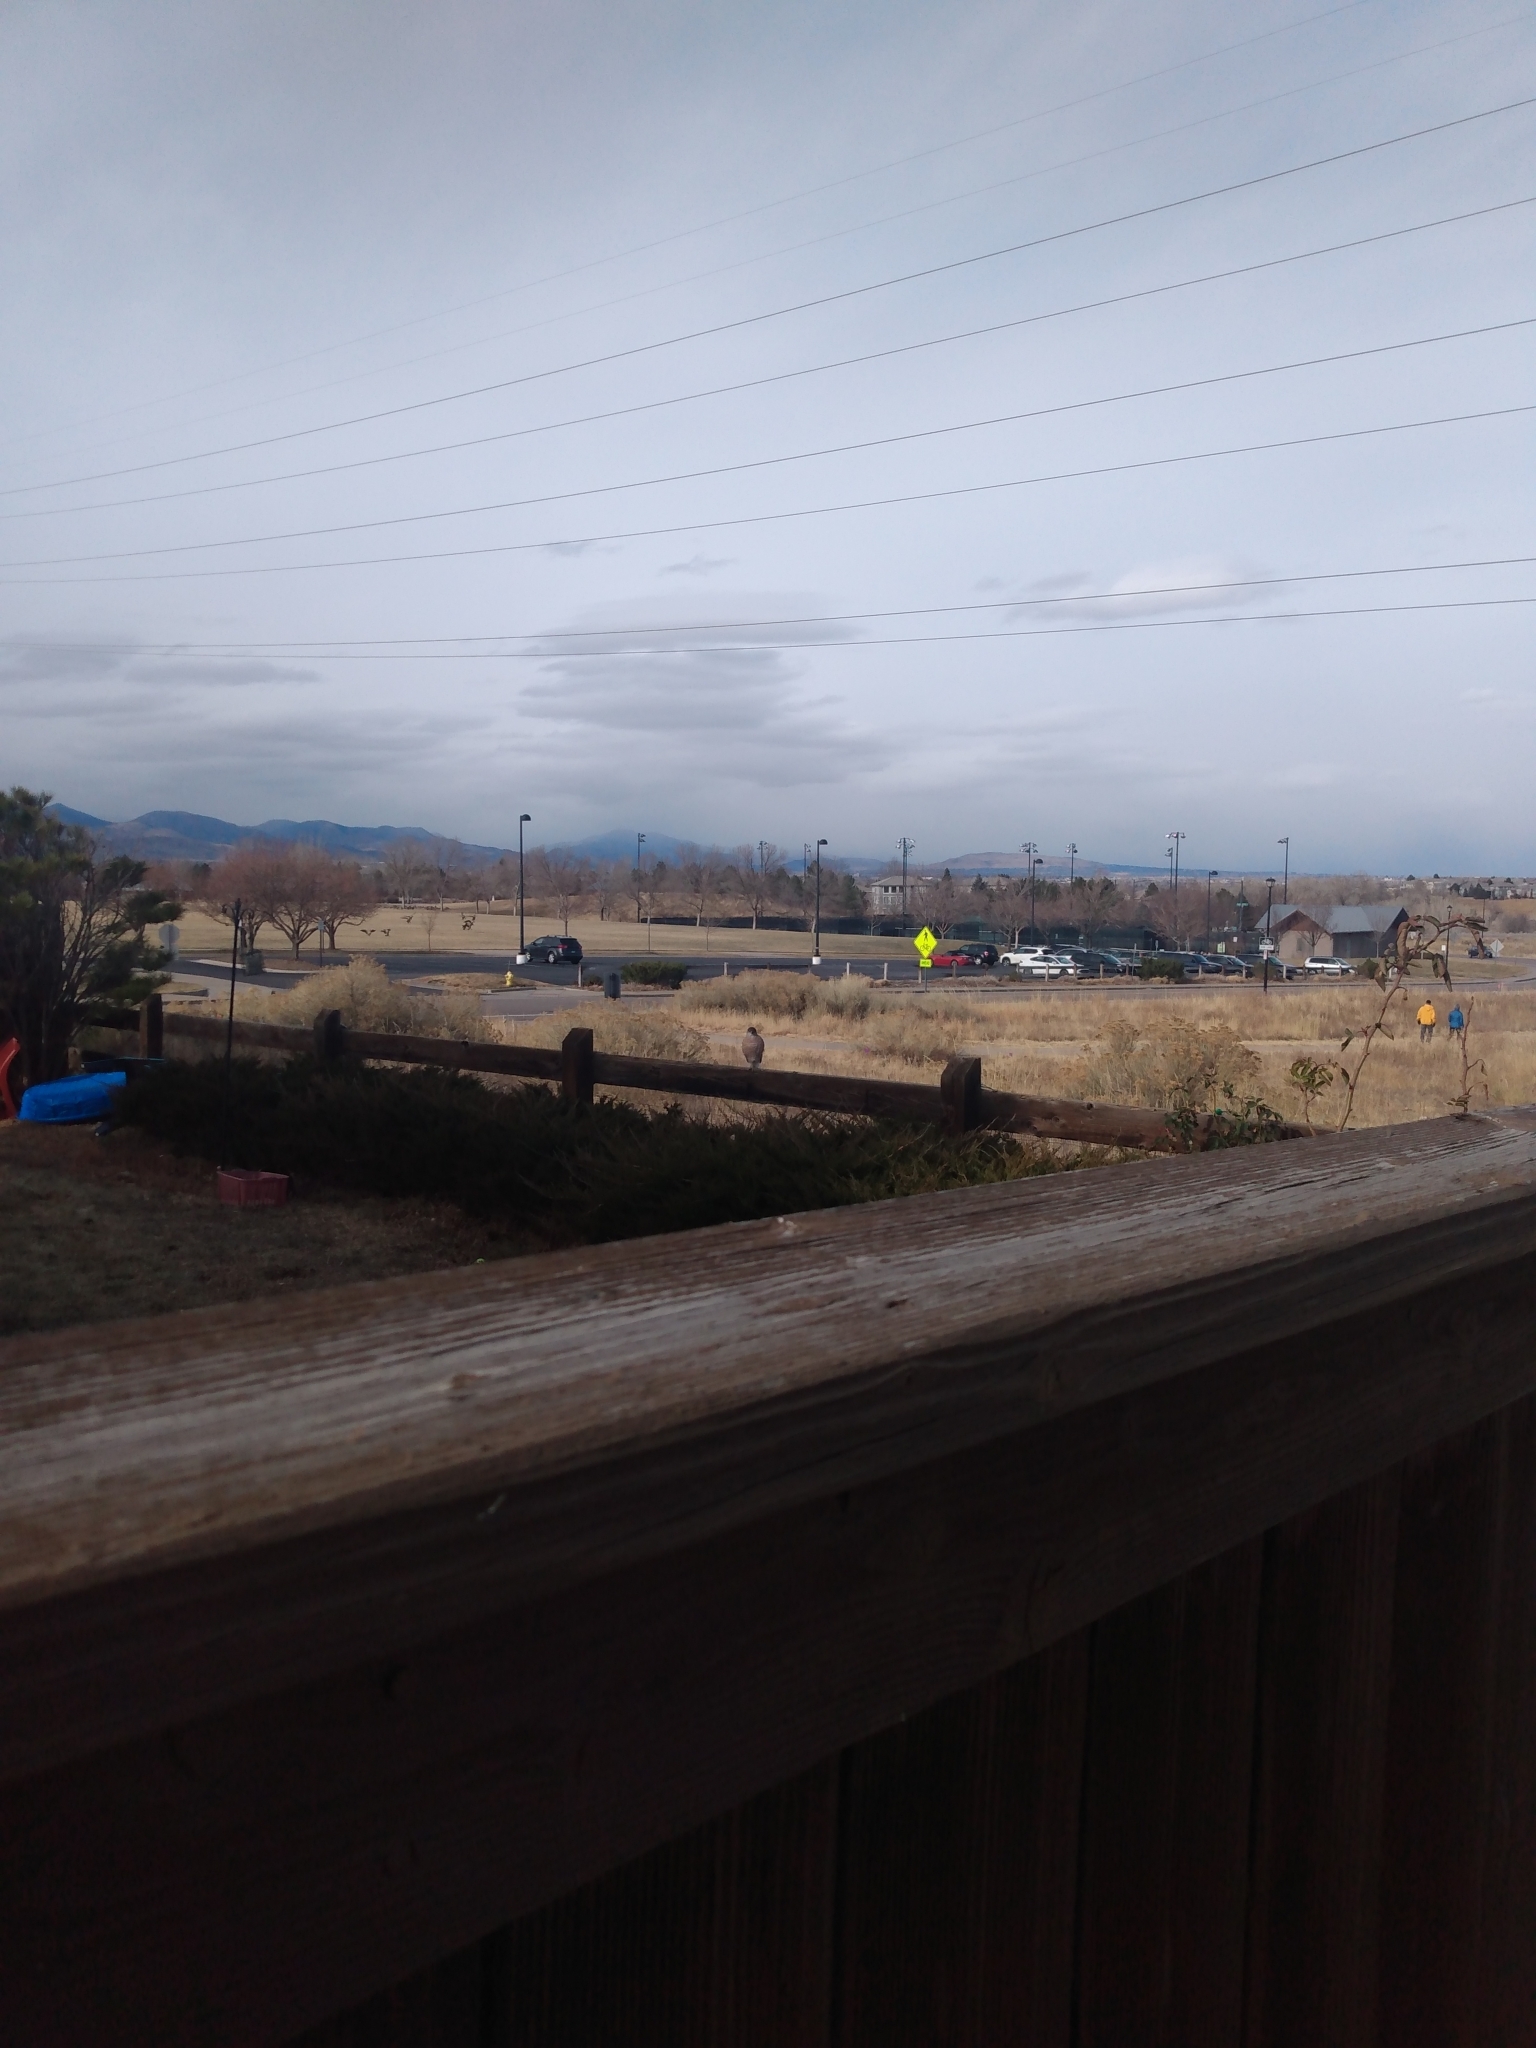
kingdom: Animalia
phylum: Chordata
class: Aves
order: Accipitriformes
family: Accipitridae
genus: Accipiter
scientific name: Accipiter cooperii
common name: Cooper's hawk
